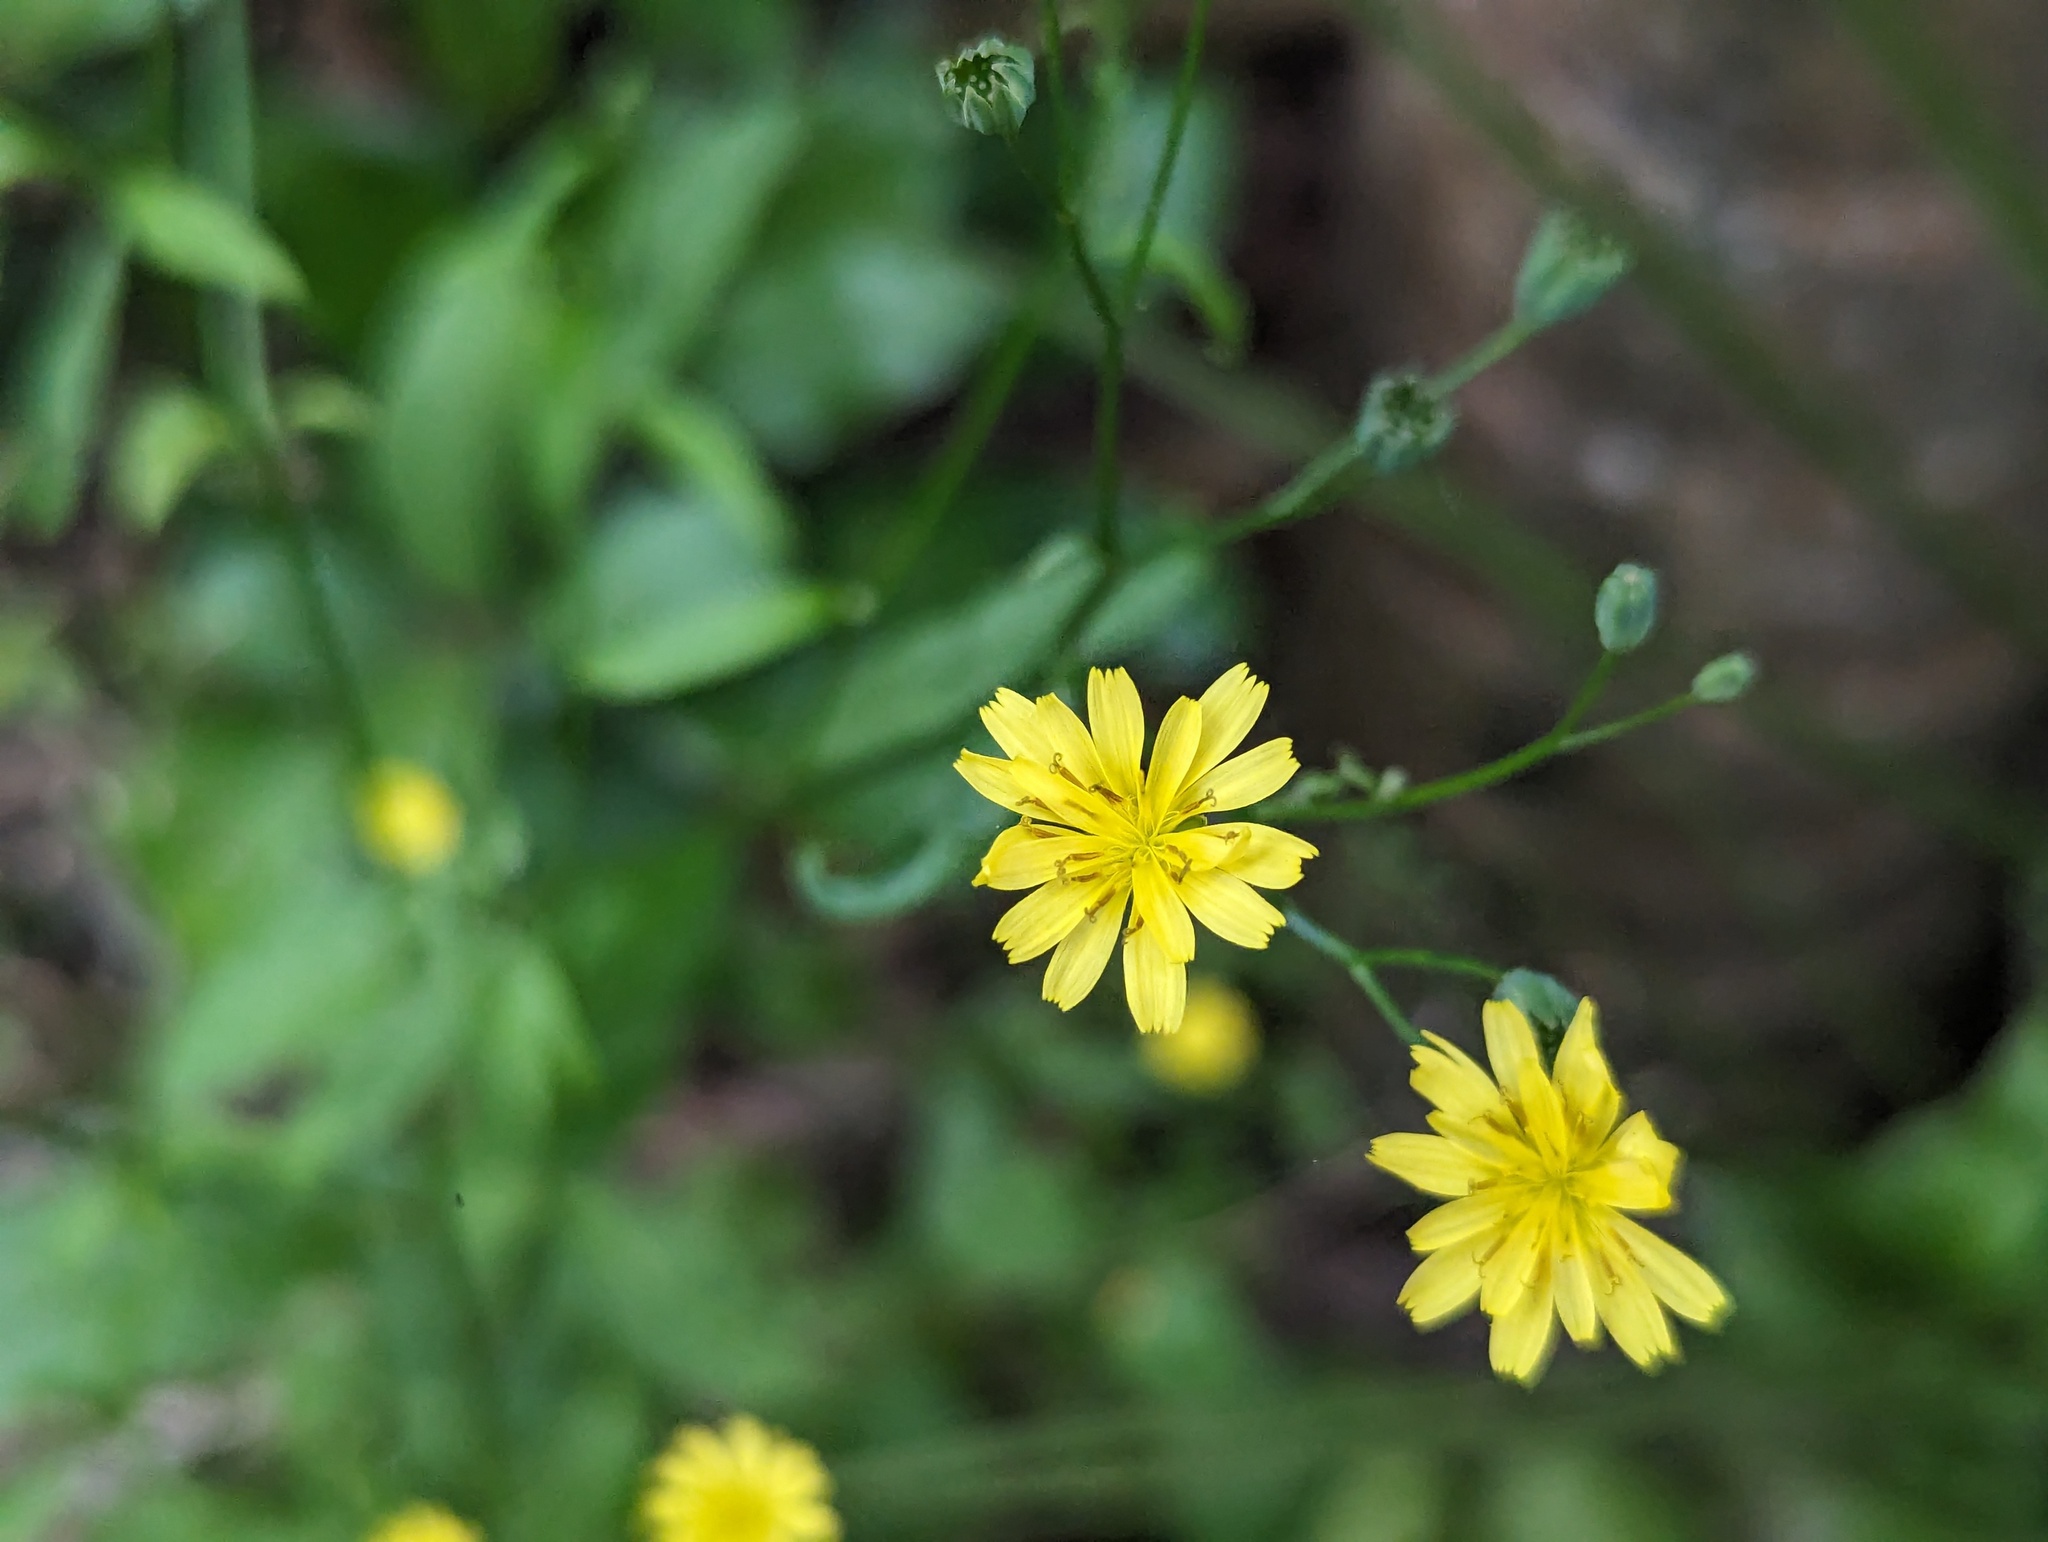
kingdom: Plantae
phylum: Tracheophyta
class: Magnoliopsida
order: Asterales
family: Asteraceae
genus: Lapsana
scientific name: Lapsana communis
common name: Nipplewort
